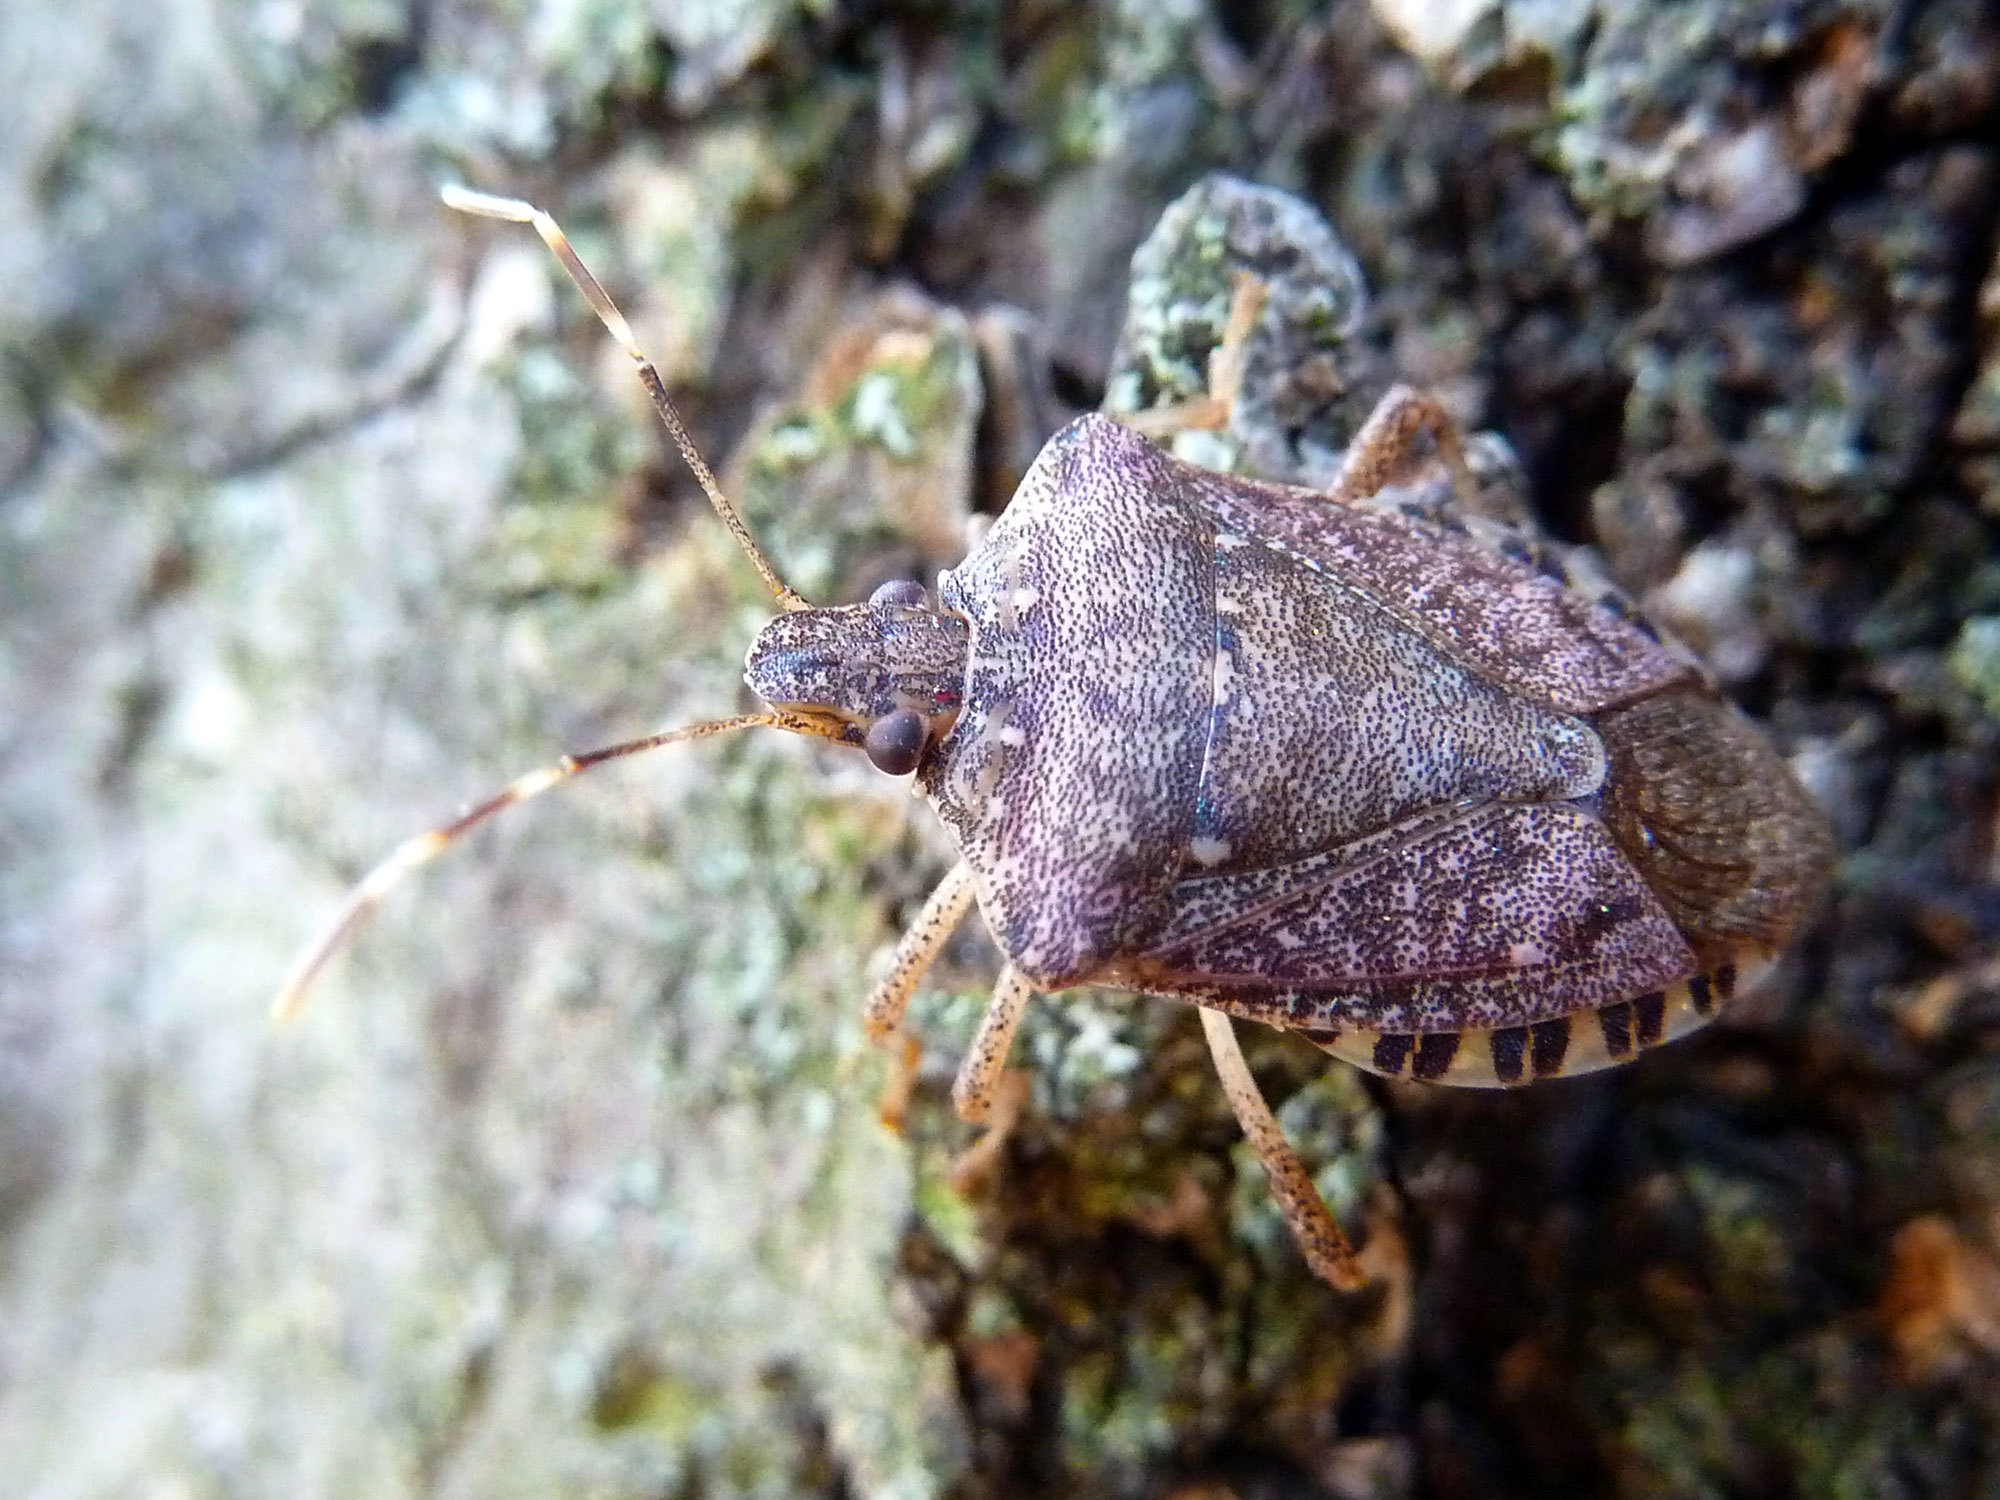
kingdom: Animalia
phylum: Arthropoda
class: Insecta
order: Hemiptera
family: Pentatomidae
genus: Halyomorpha
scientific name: Halyomorpha halys
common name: Brown marmorated stink bug
